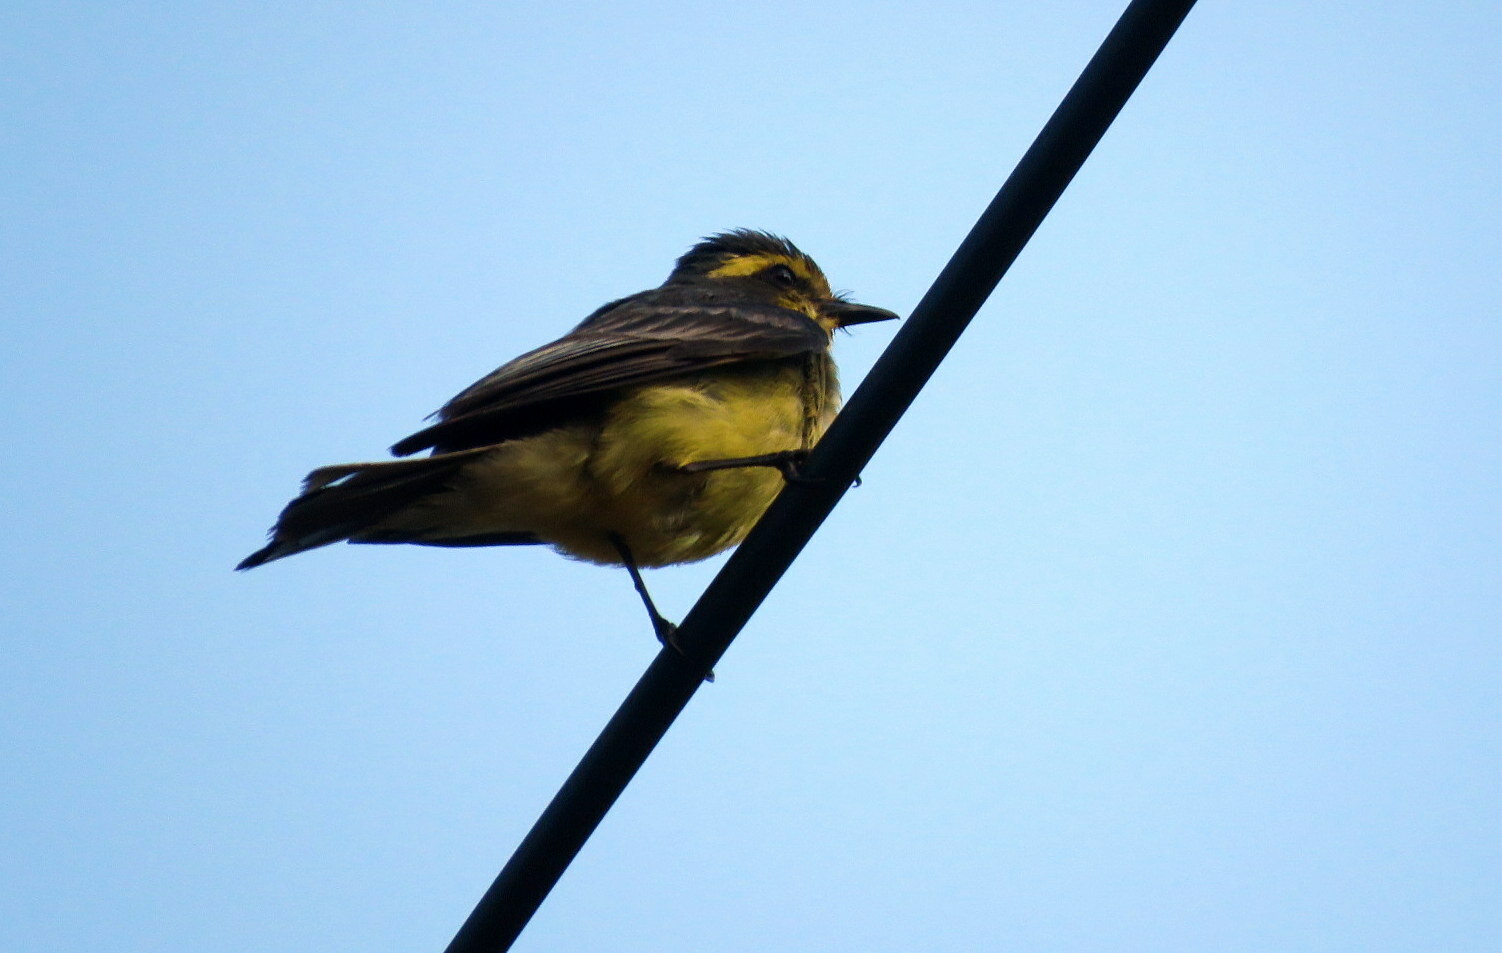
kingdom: Animalia
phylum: Chordata
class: Aves
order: Passeriformes
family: Tyrannidae
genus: Satrapa
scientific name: Satrapa icterophrys
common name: Yellow-browed tyrant
